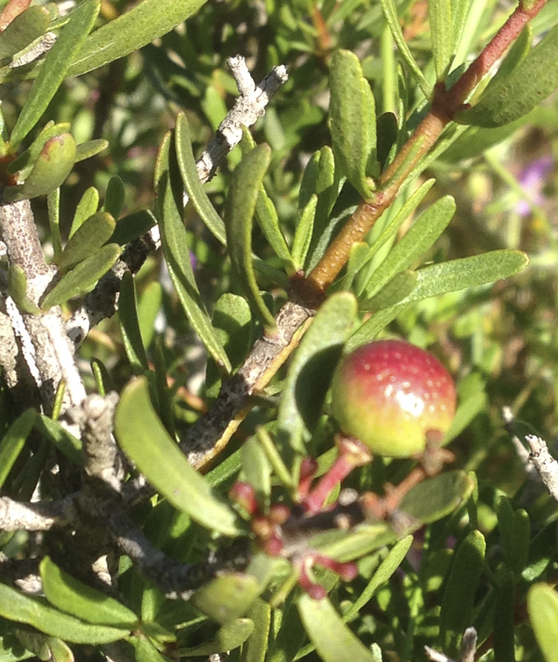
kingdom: Plantae
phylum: Tracheophyta
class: Magnoliopsida
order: Sapindales
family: Rutaceae
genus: Cneoridium
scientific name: Cneoridium dumosum
